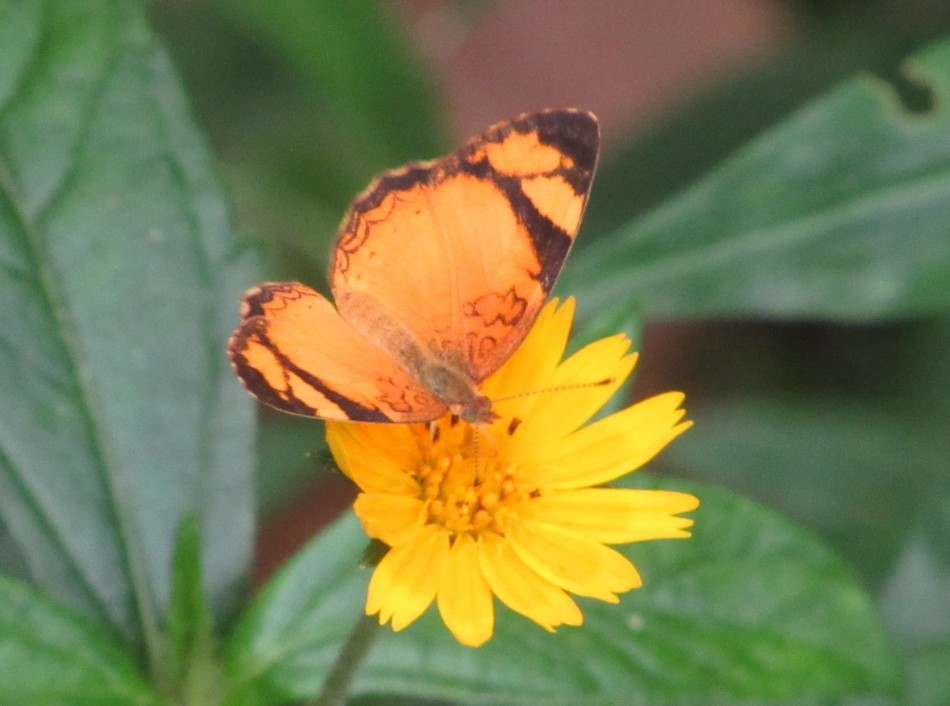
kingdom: Animalia
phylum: Arthropoda
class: Insecta
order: Lepidoptera
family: Nymphalidae
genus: Tegosa
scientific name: Tegosa claudina
